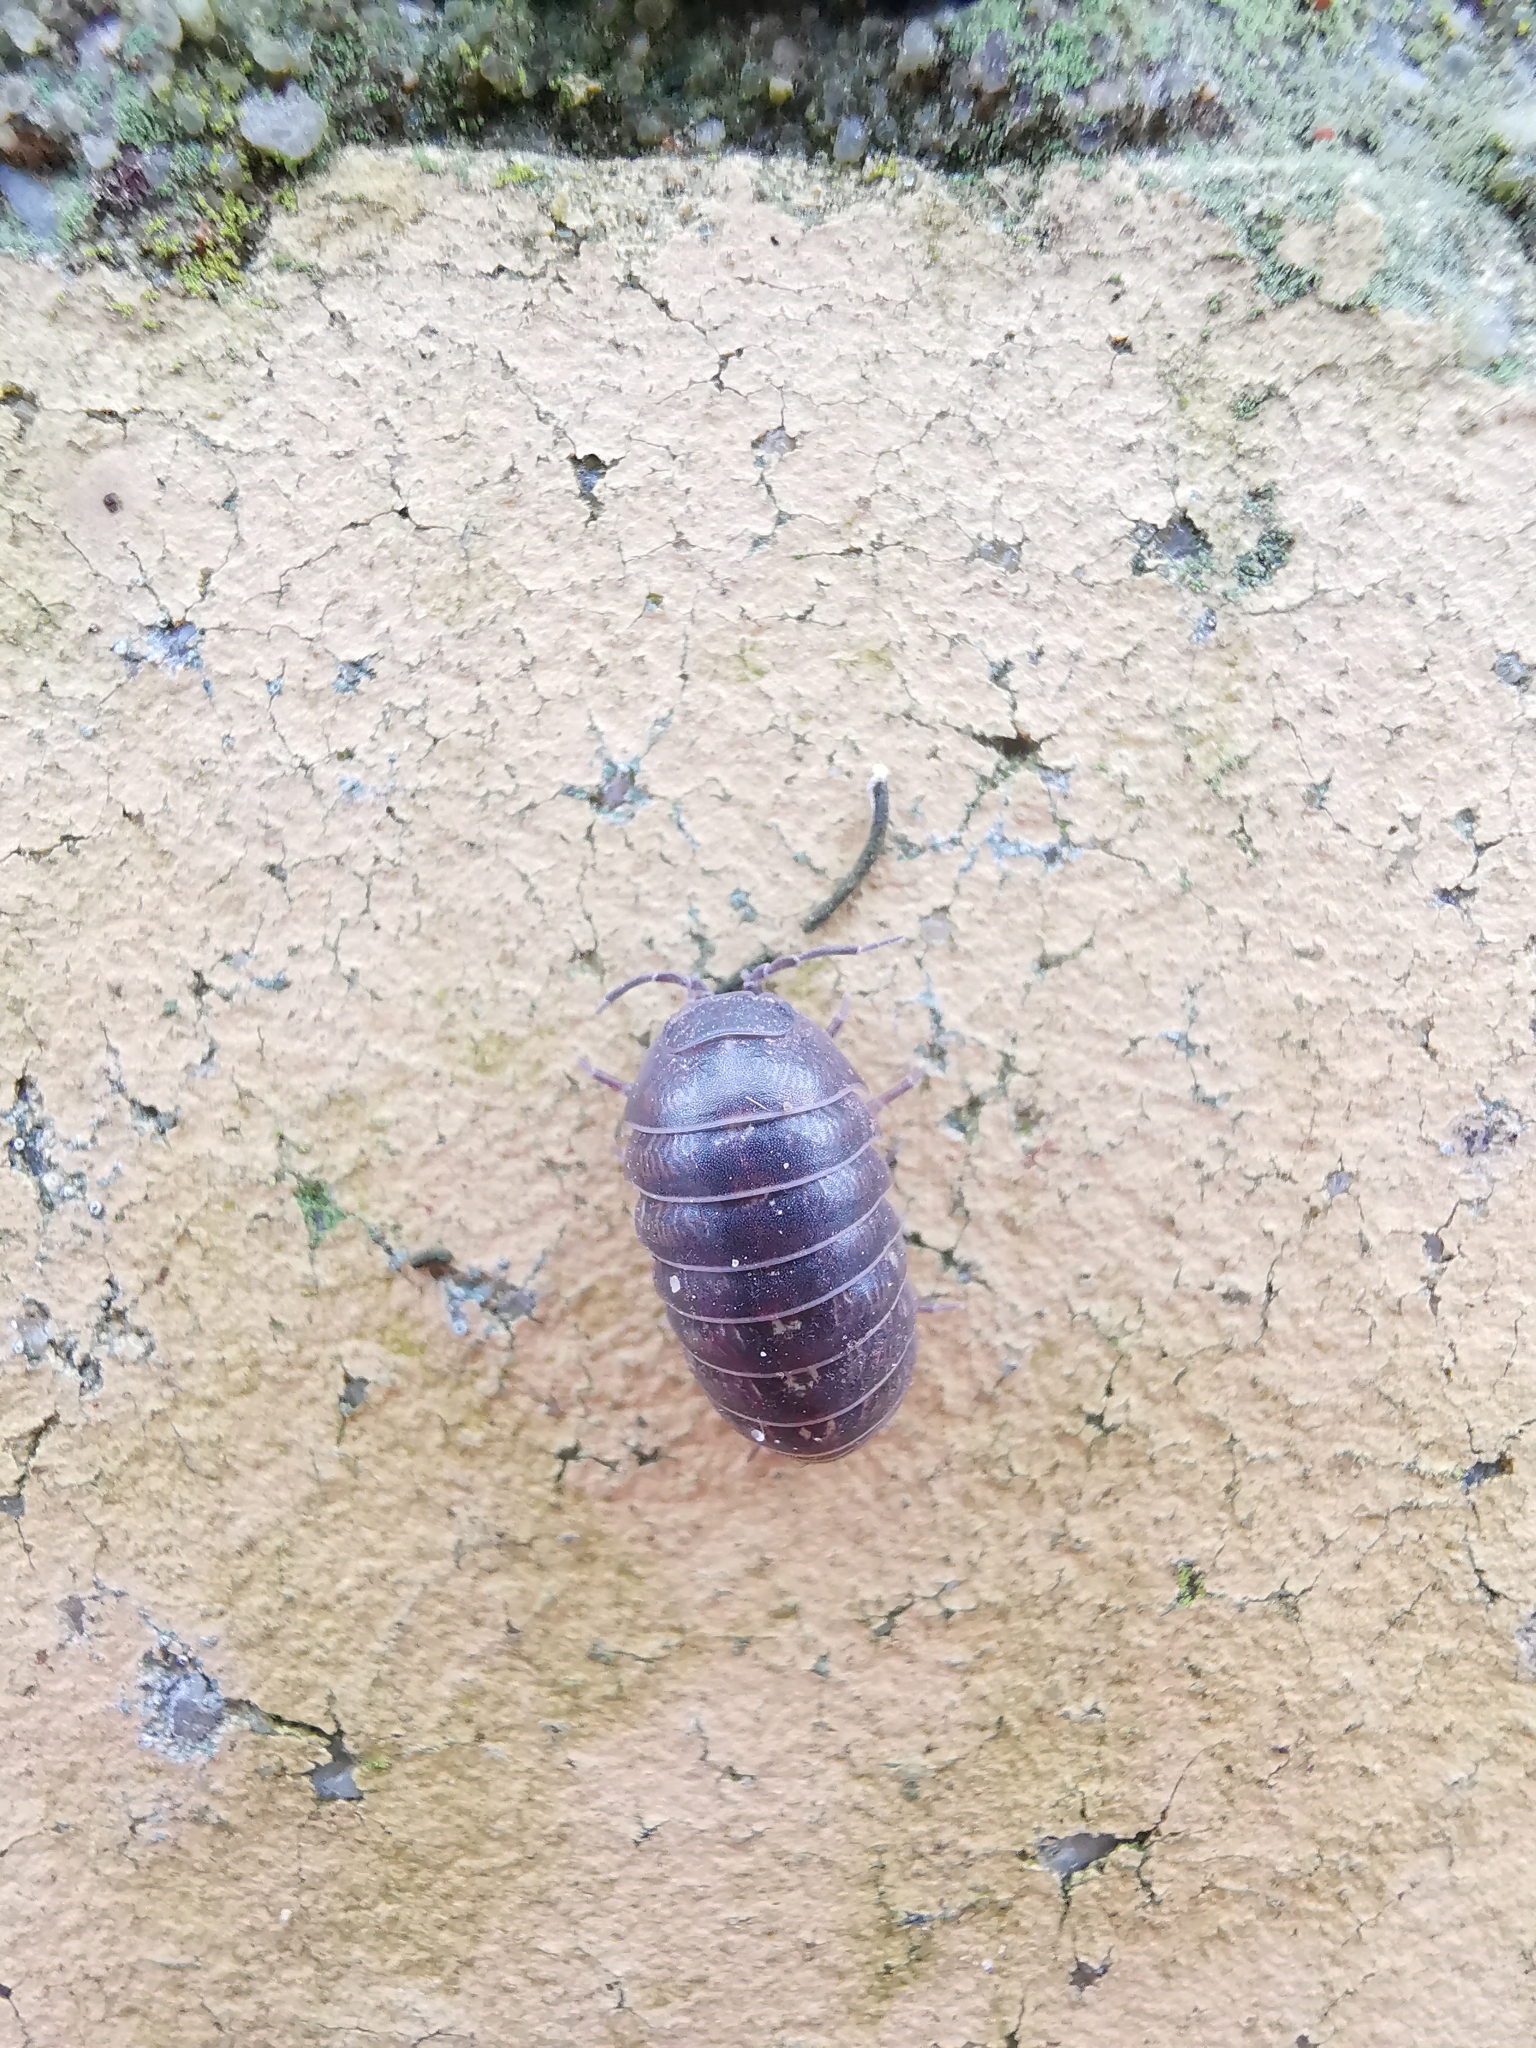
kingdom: Animalia
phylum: Arthropoda
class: Malacostraca
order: Isopoda
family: Armadillidiidae
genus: Armadillidium
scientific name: Armadillidium vulgare
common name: Common pill woodlouse
